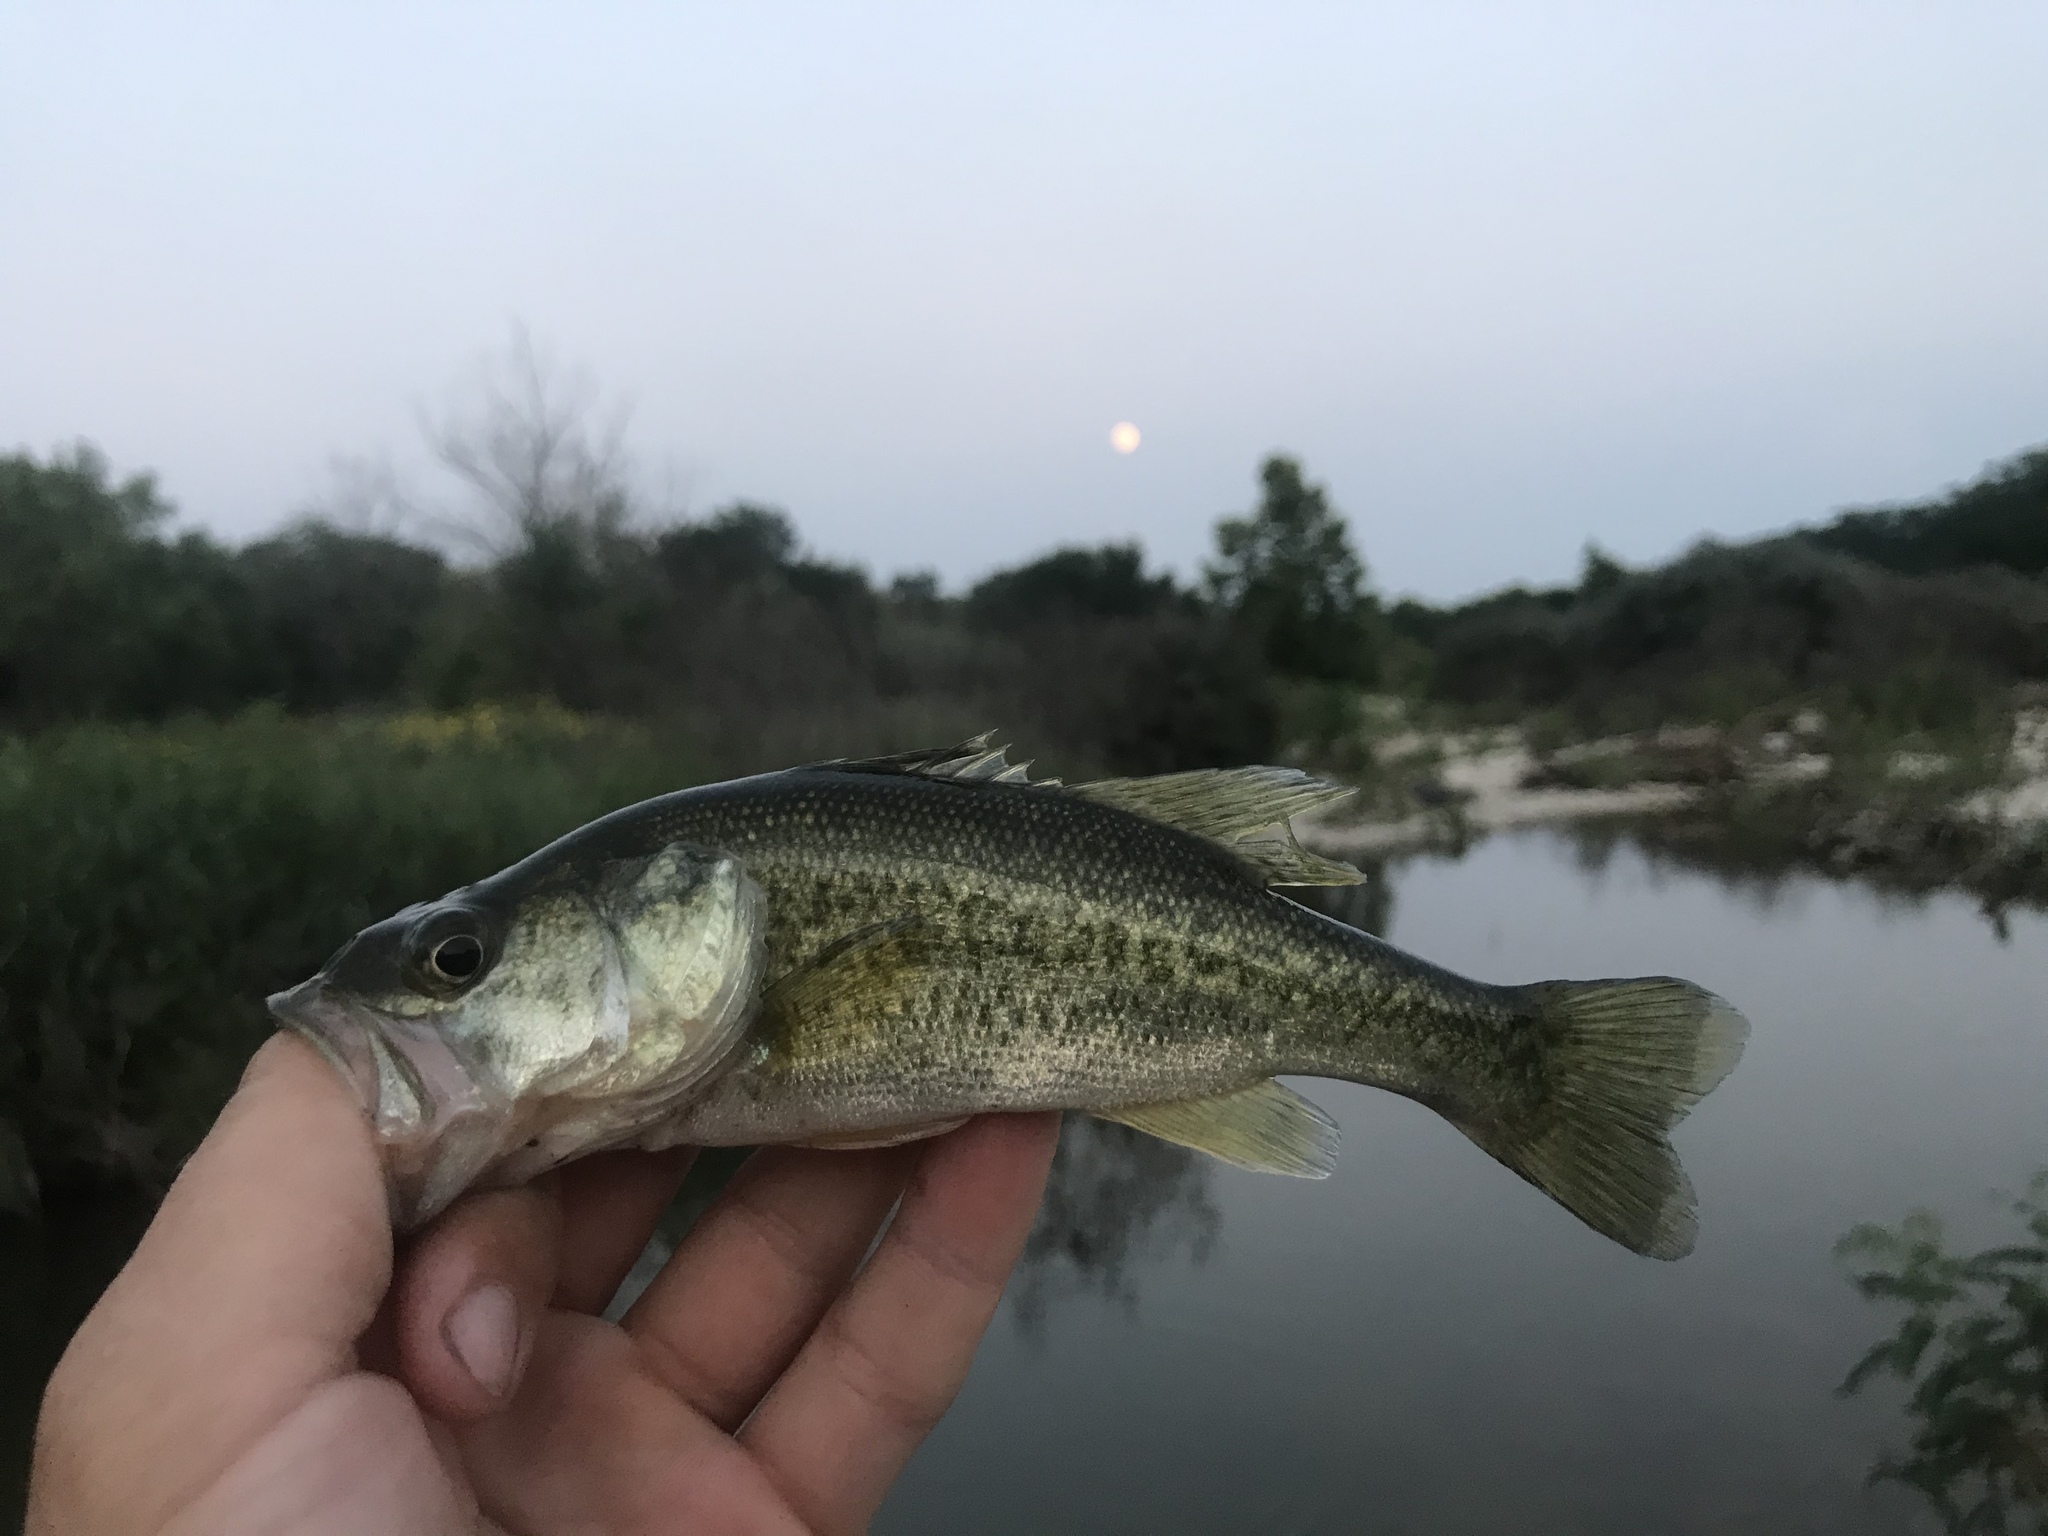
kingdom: Animalia
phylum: Chordata
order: Perciformes
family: Centrarchidae
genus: Micropterus
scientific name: Micropterus
